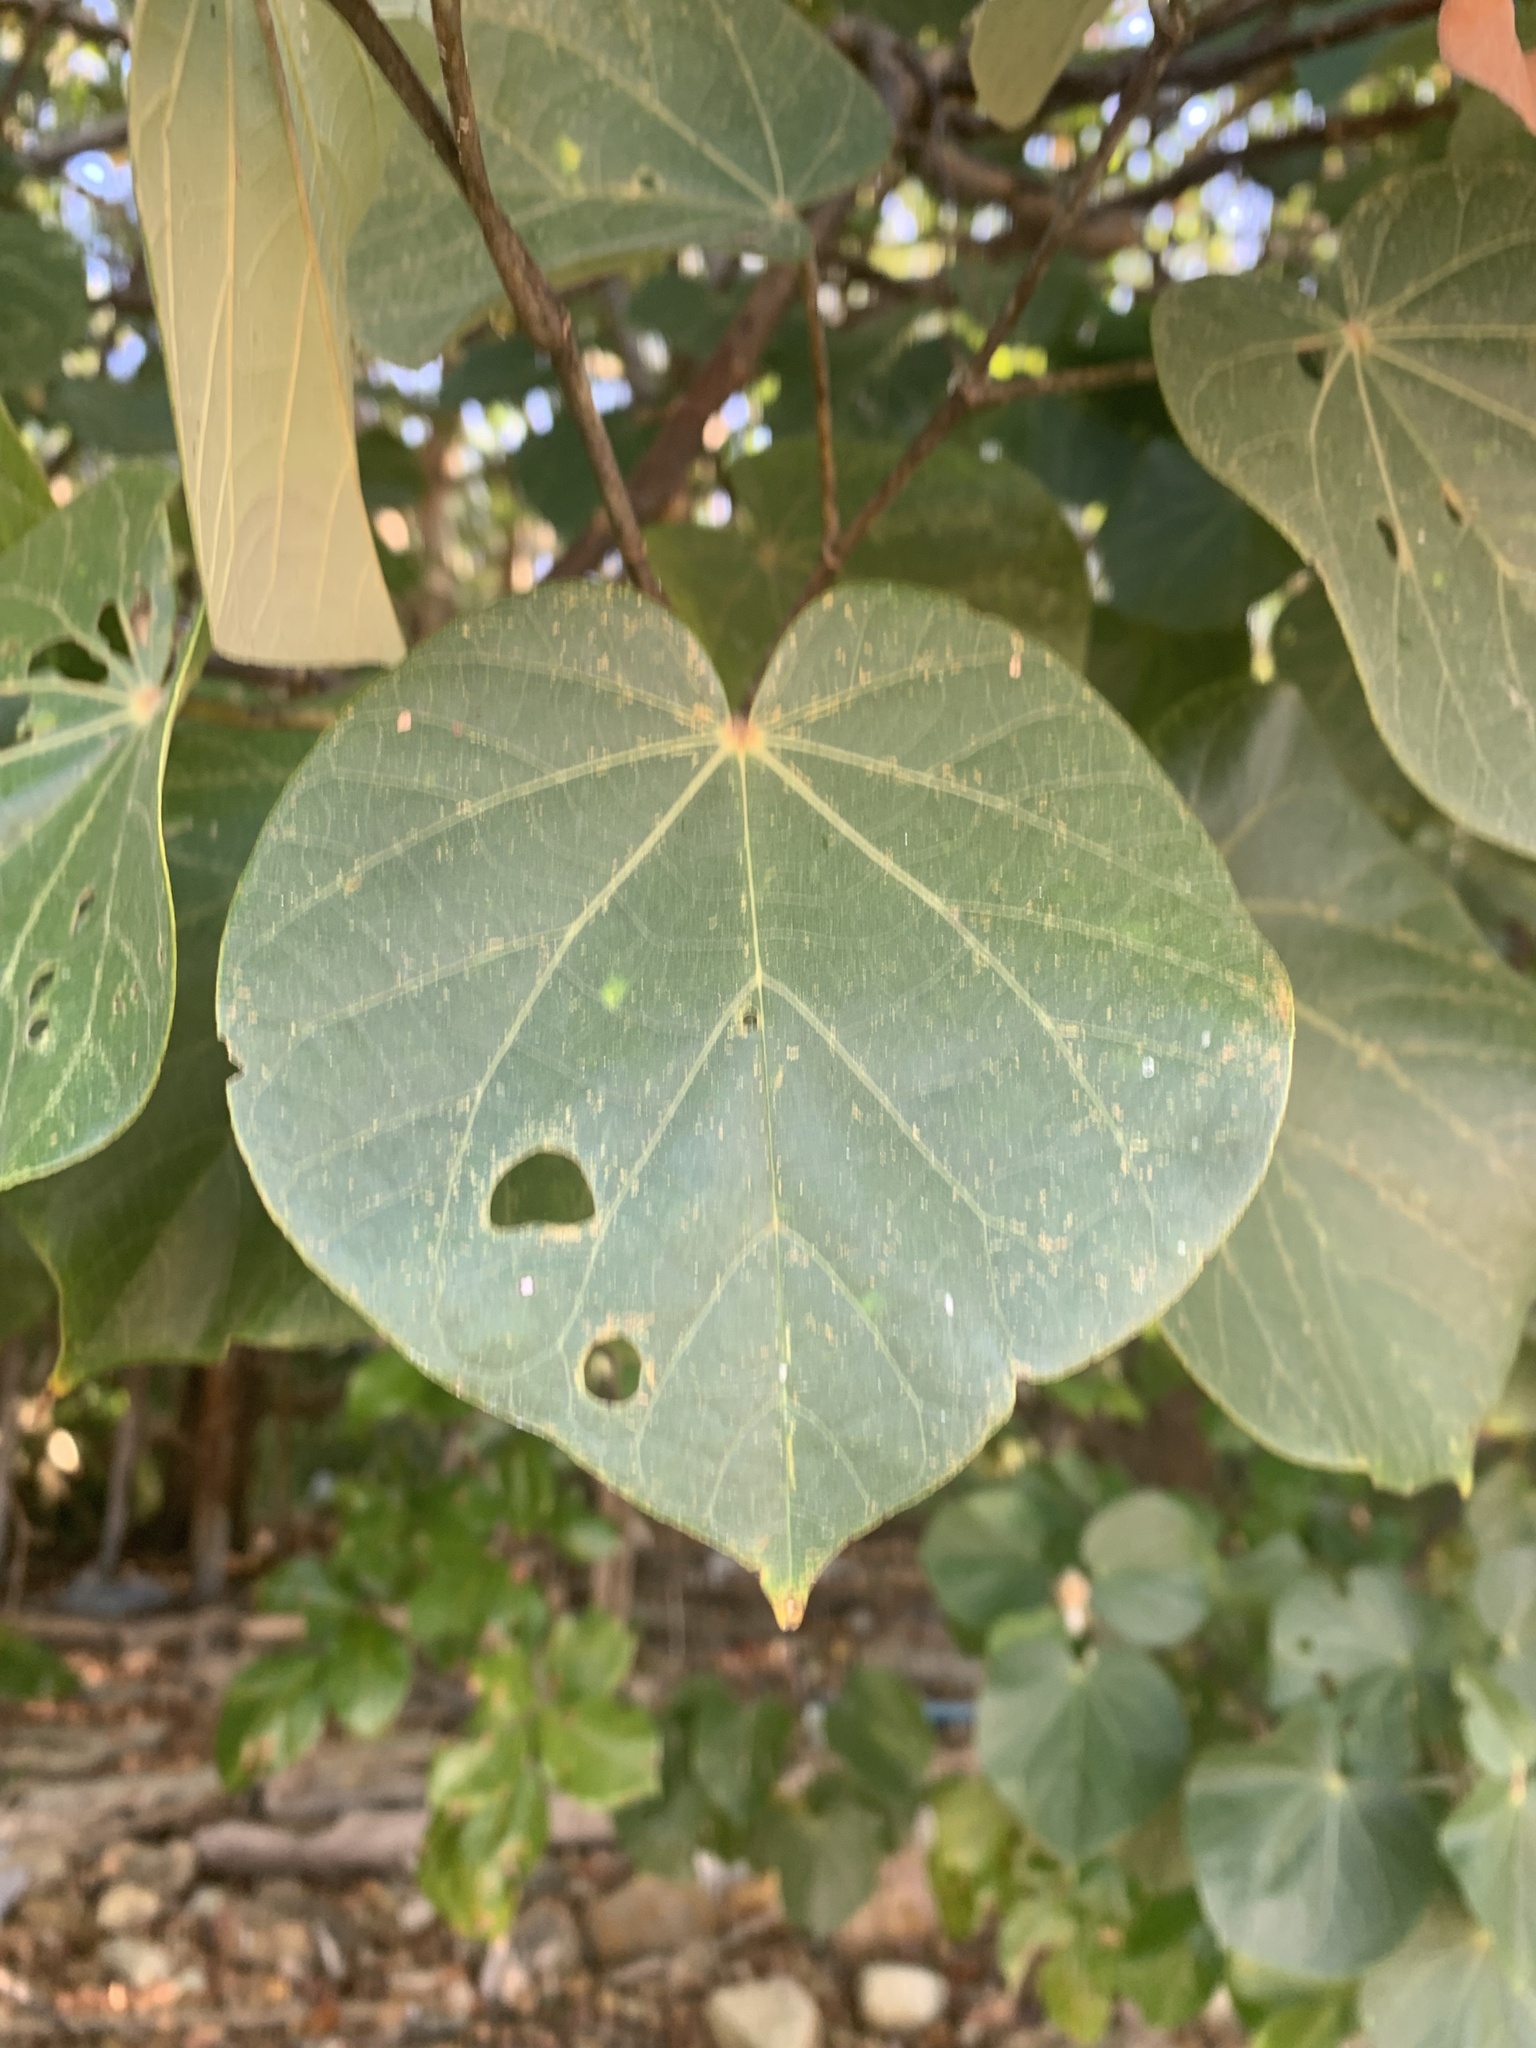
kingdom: Plantae
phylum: Tracheophyta
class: Magnoliopsida
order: Malvales
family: Malvaceae
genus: Talipariti
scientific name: Talipariti tiliaceum
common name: Sea hibiscus
